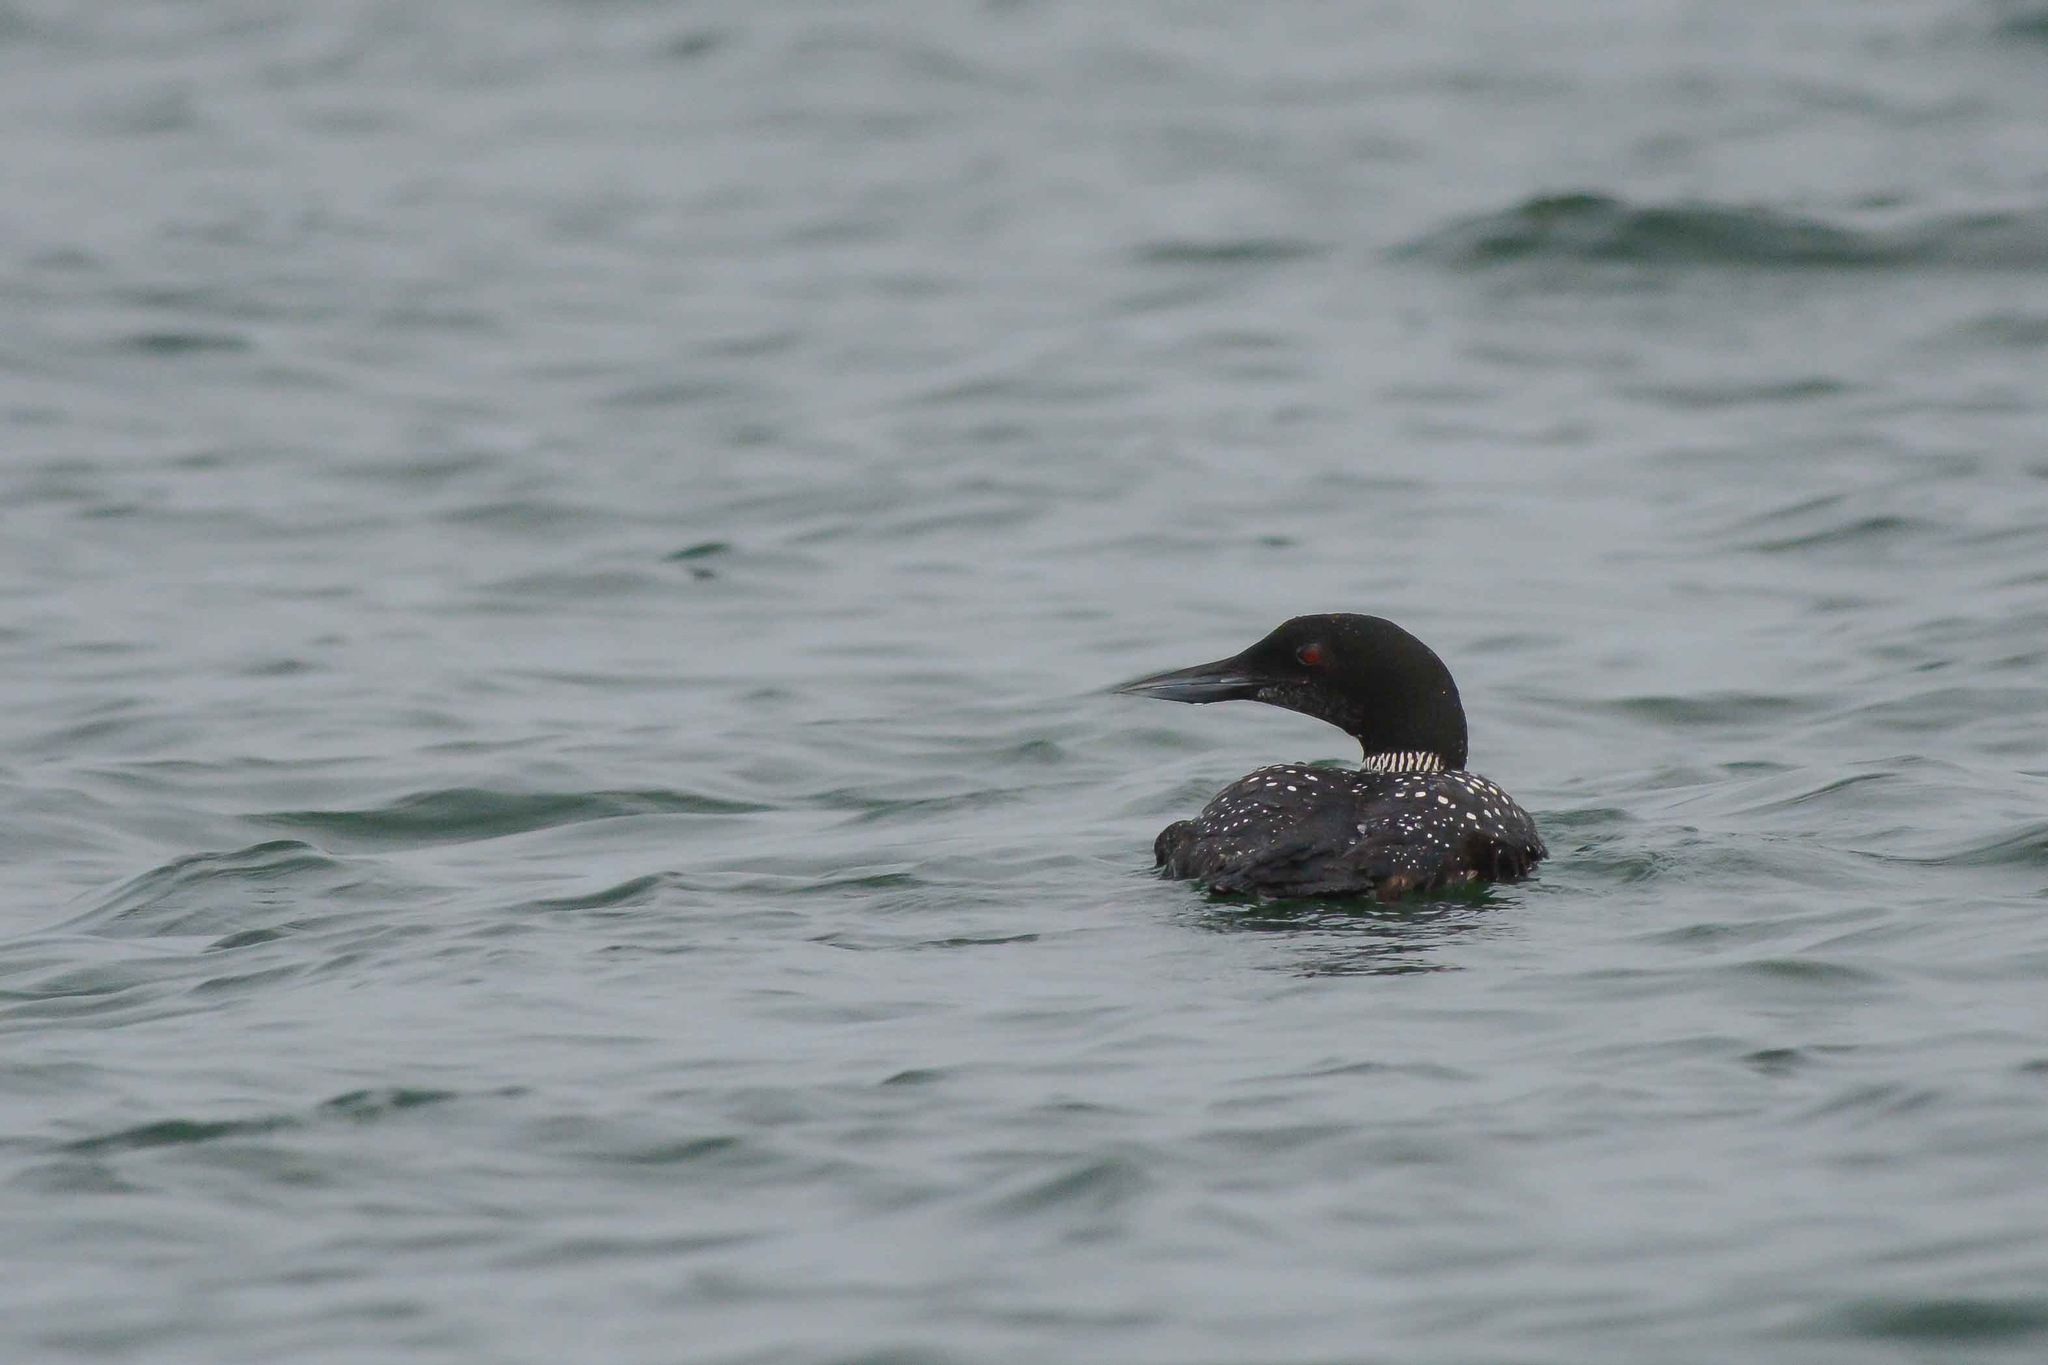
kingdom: Animalia
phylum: Chordata
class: Aves
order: Gaviiformes
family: Gaviidae
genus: Gavia
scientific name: Gavia immer
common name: Common loon
